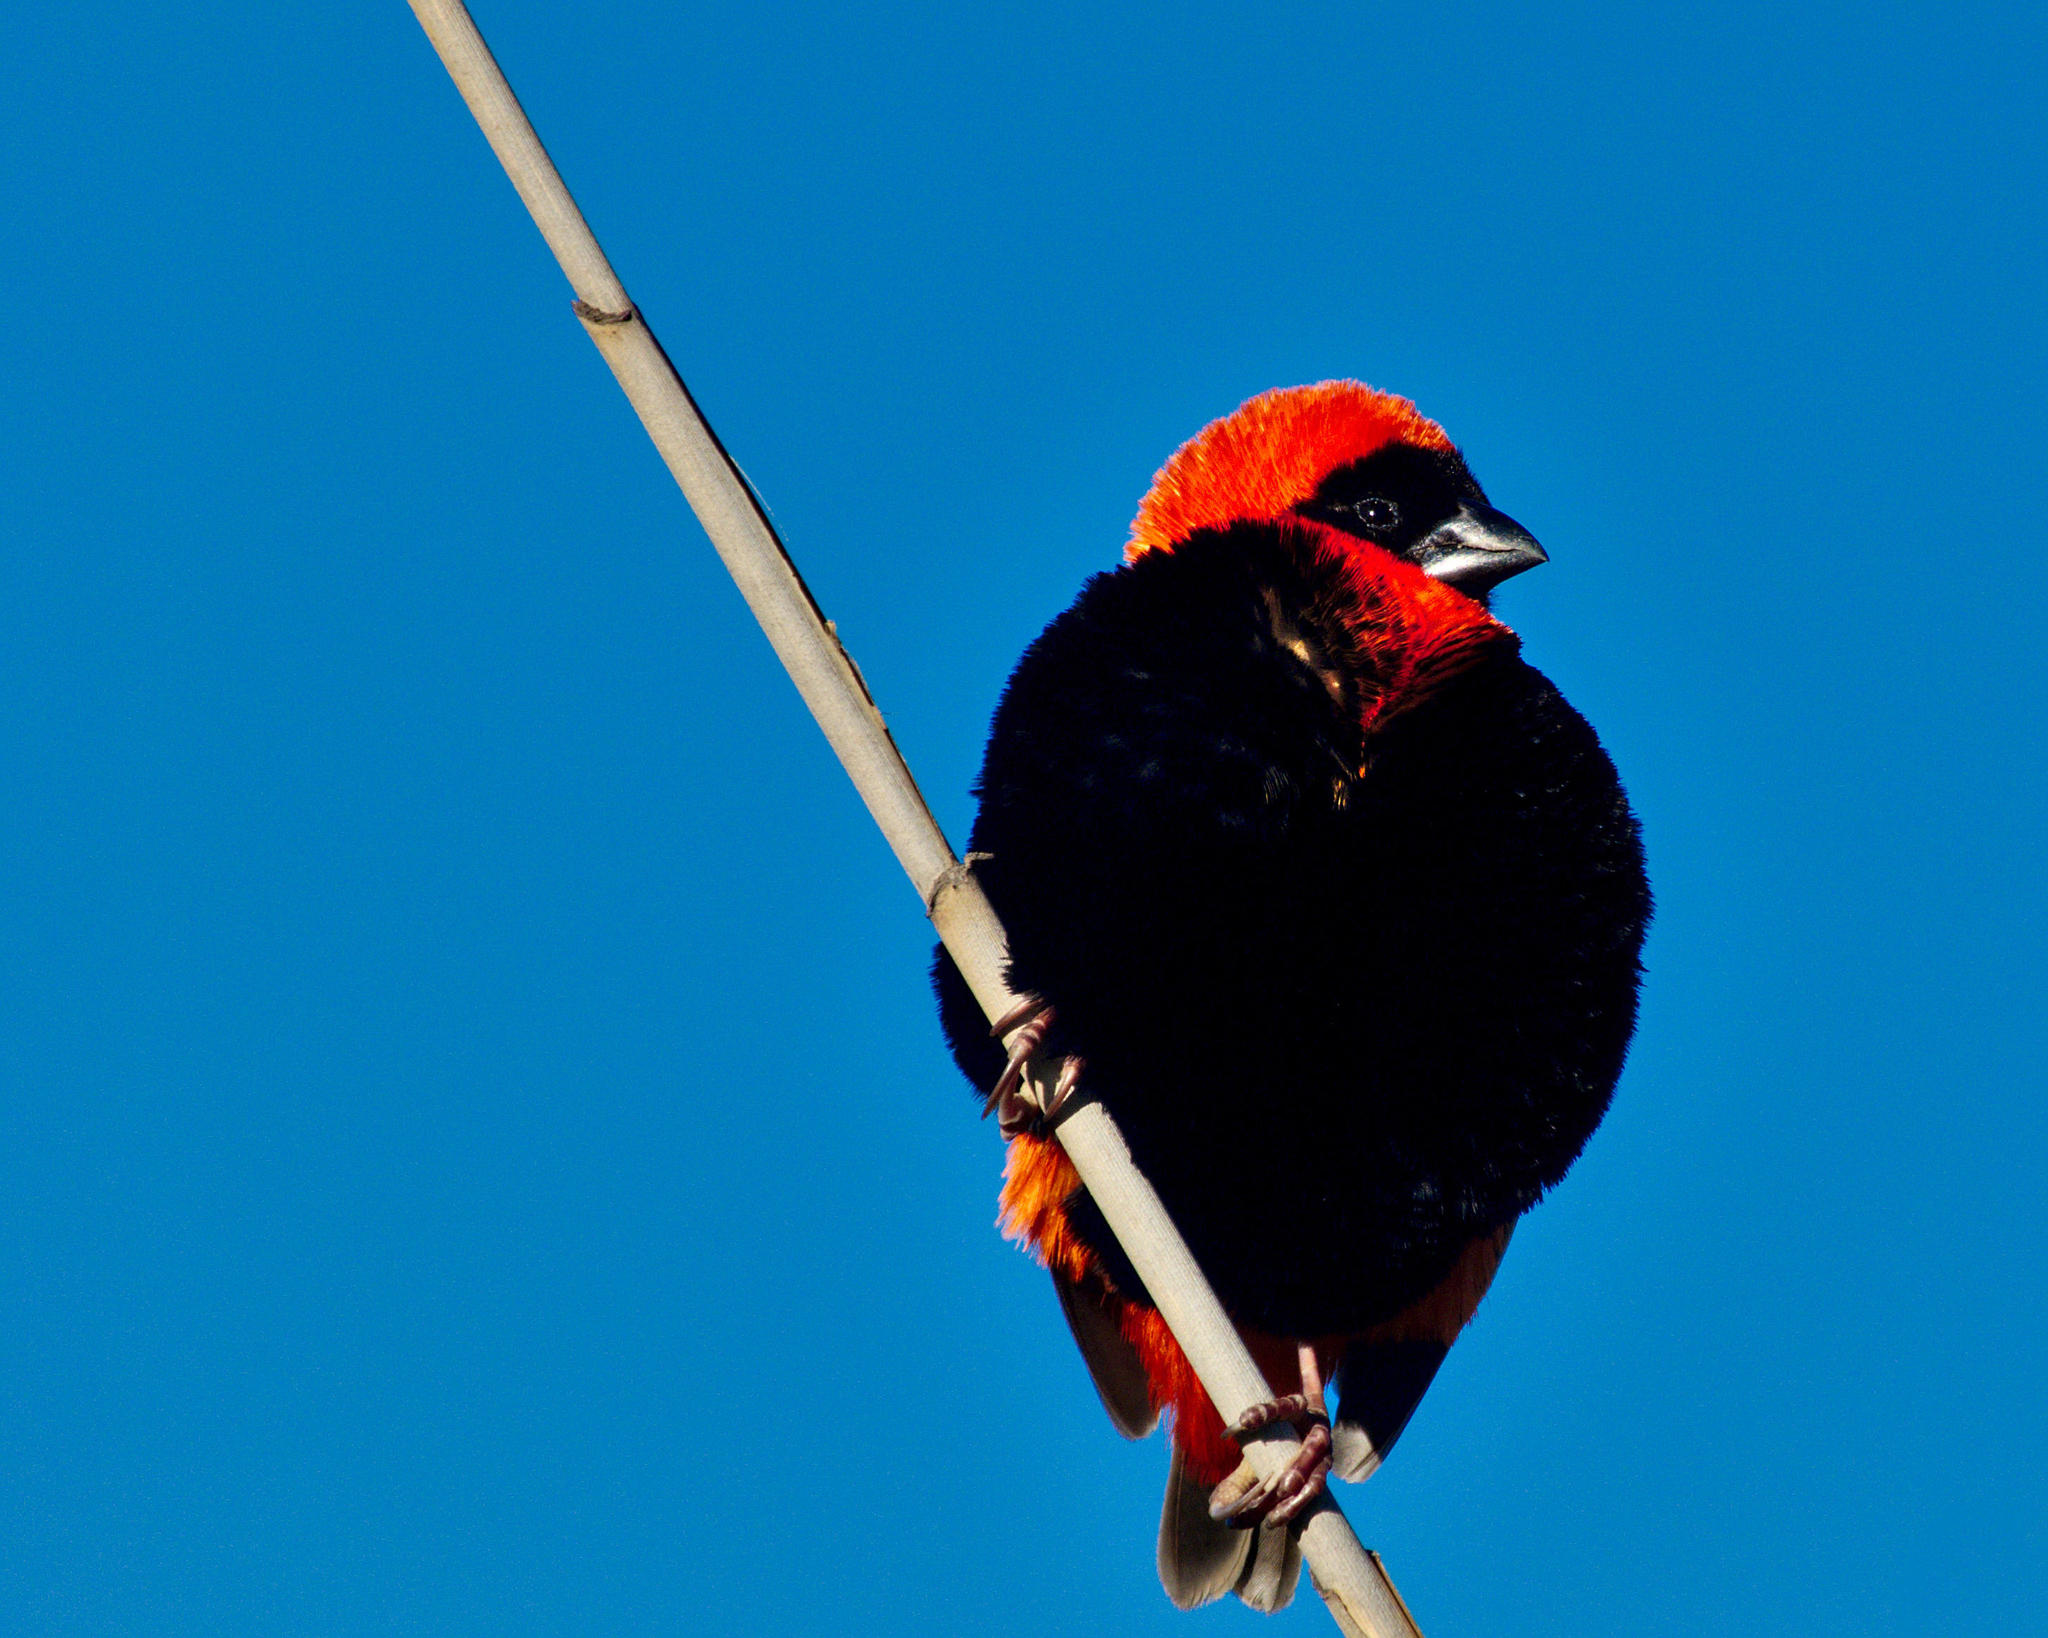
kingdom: Animalia
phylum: Chordata
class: Aves
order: Passeriformes
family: Ploceidae
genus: Euplectes
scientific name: Euplectes orix
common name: Southern red bishop
